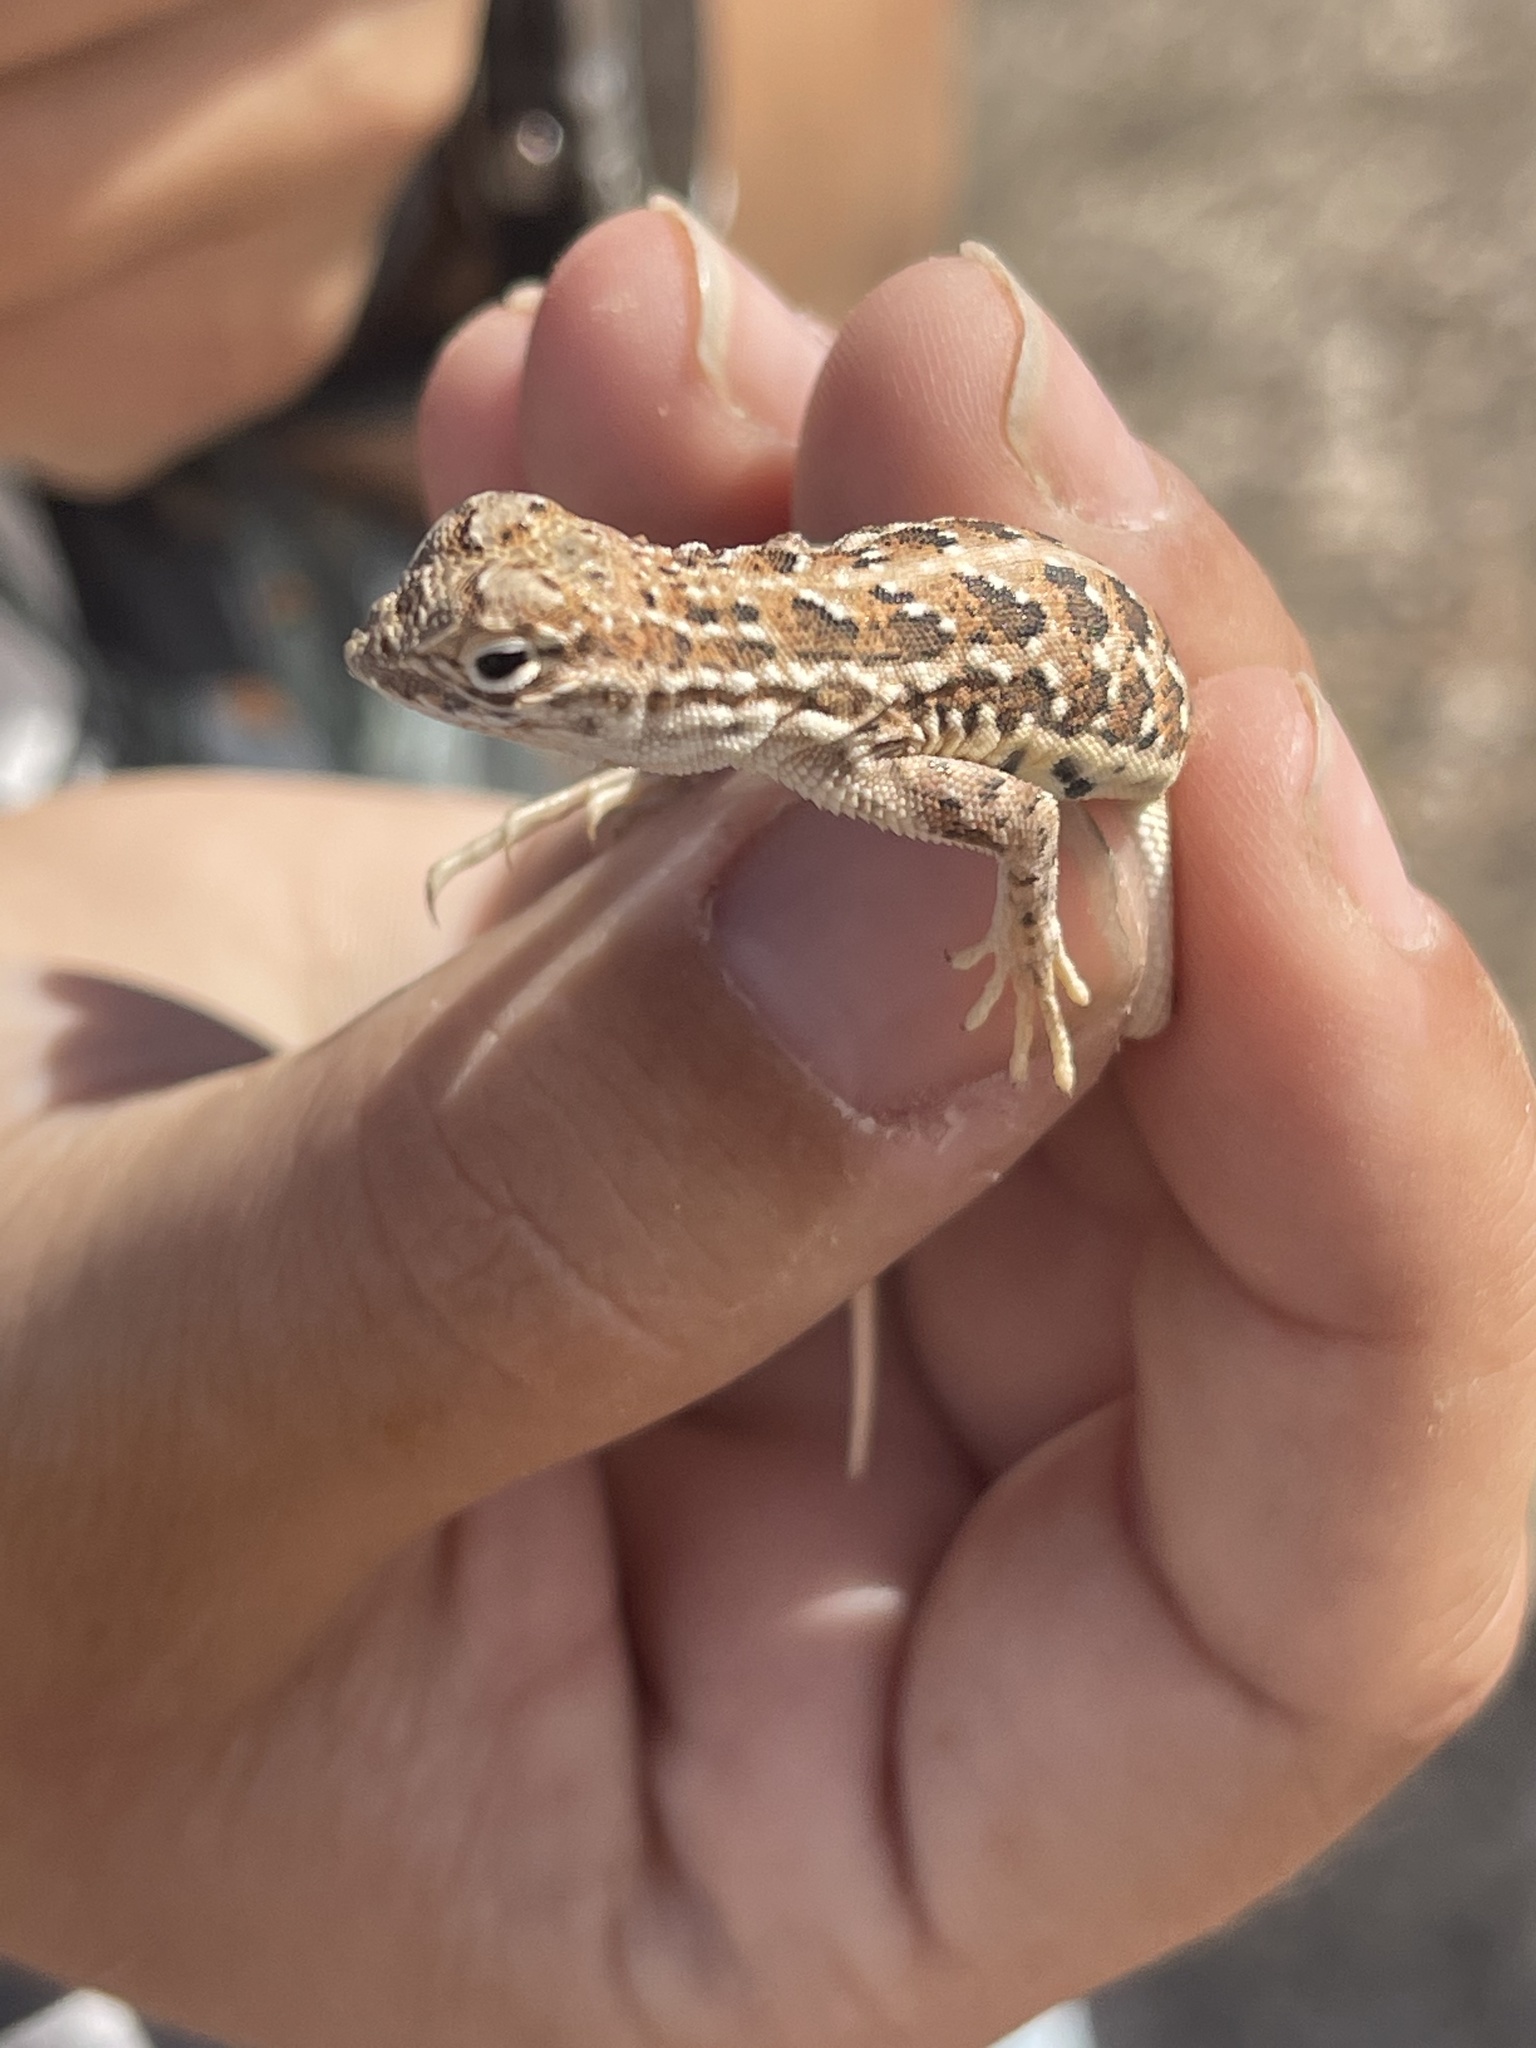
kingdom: Animalia
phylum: Chordata
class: Squamata
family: Phrynosomatidae
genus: Holbrookia
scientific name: Holbrookia maculata
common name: Lesser earless lizard
